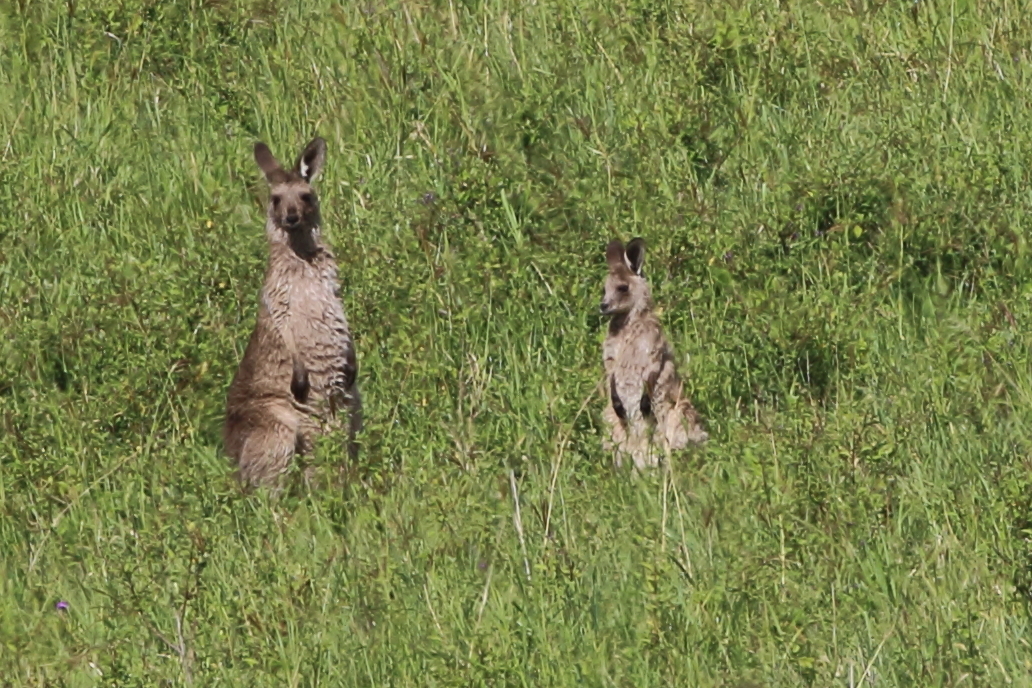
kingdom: Animalia
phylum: Chordata
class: Mammalia
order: Diprotodontia
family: Macropodidae
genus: Macropus
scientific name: Macropus giganteus
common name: Eastern grey kangaroo
